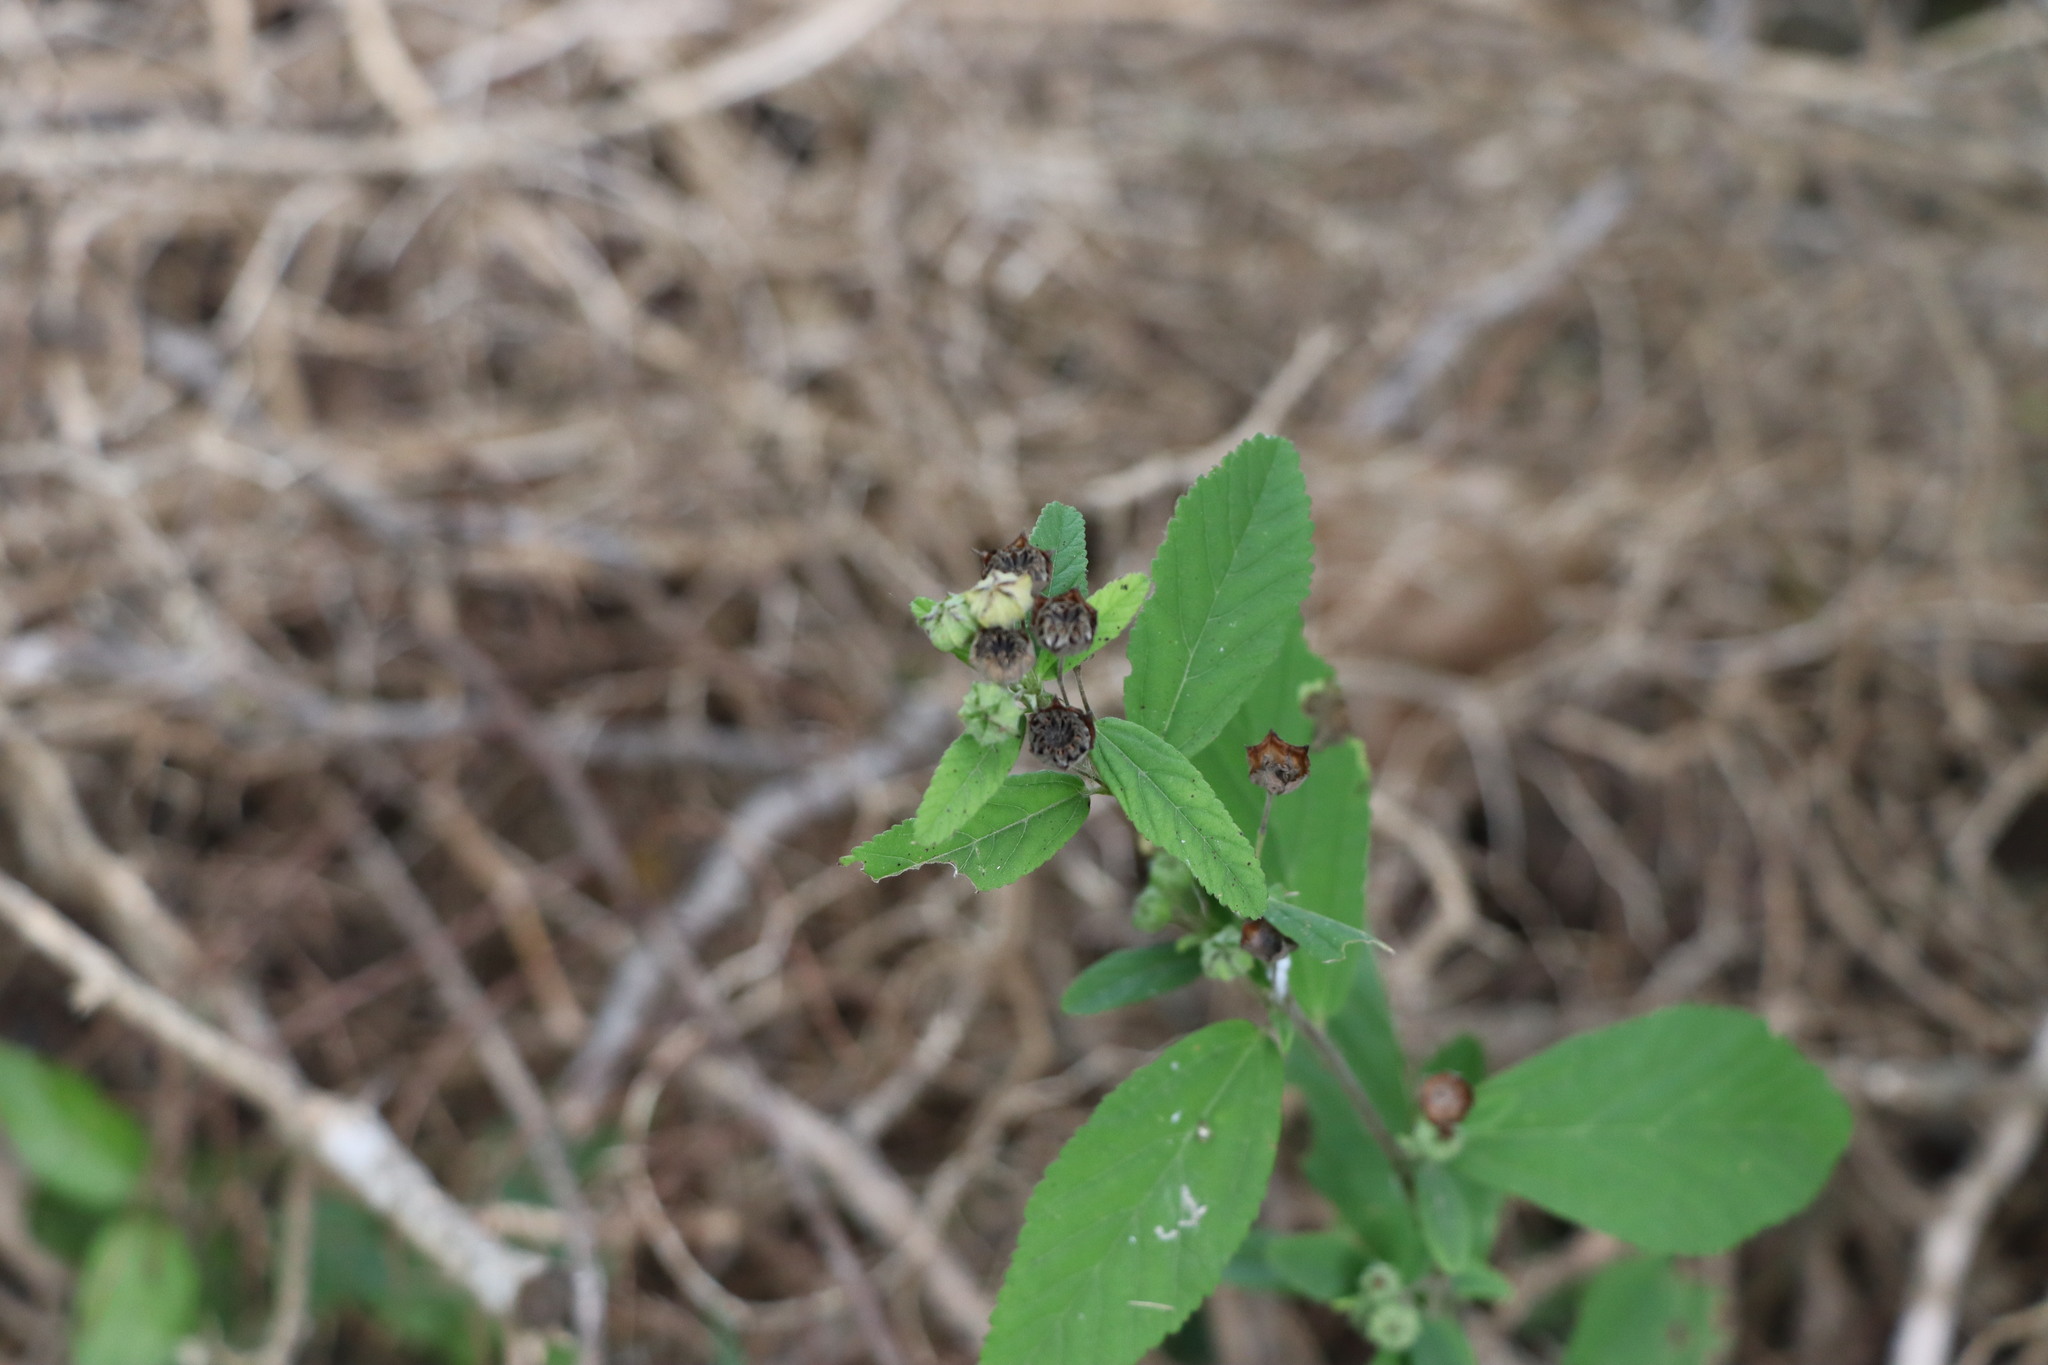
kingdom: Plantae
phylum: Tracheophyta
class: Magnoliopsida
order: Malvales
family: Malvaceae
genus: Sida
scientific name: Sida rhombifolia
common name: Queensland-hemp
